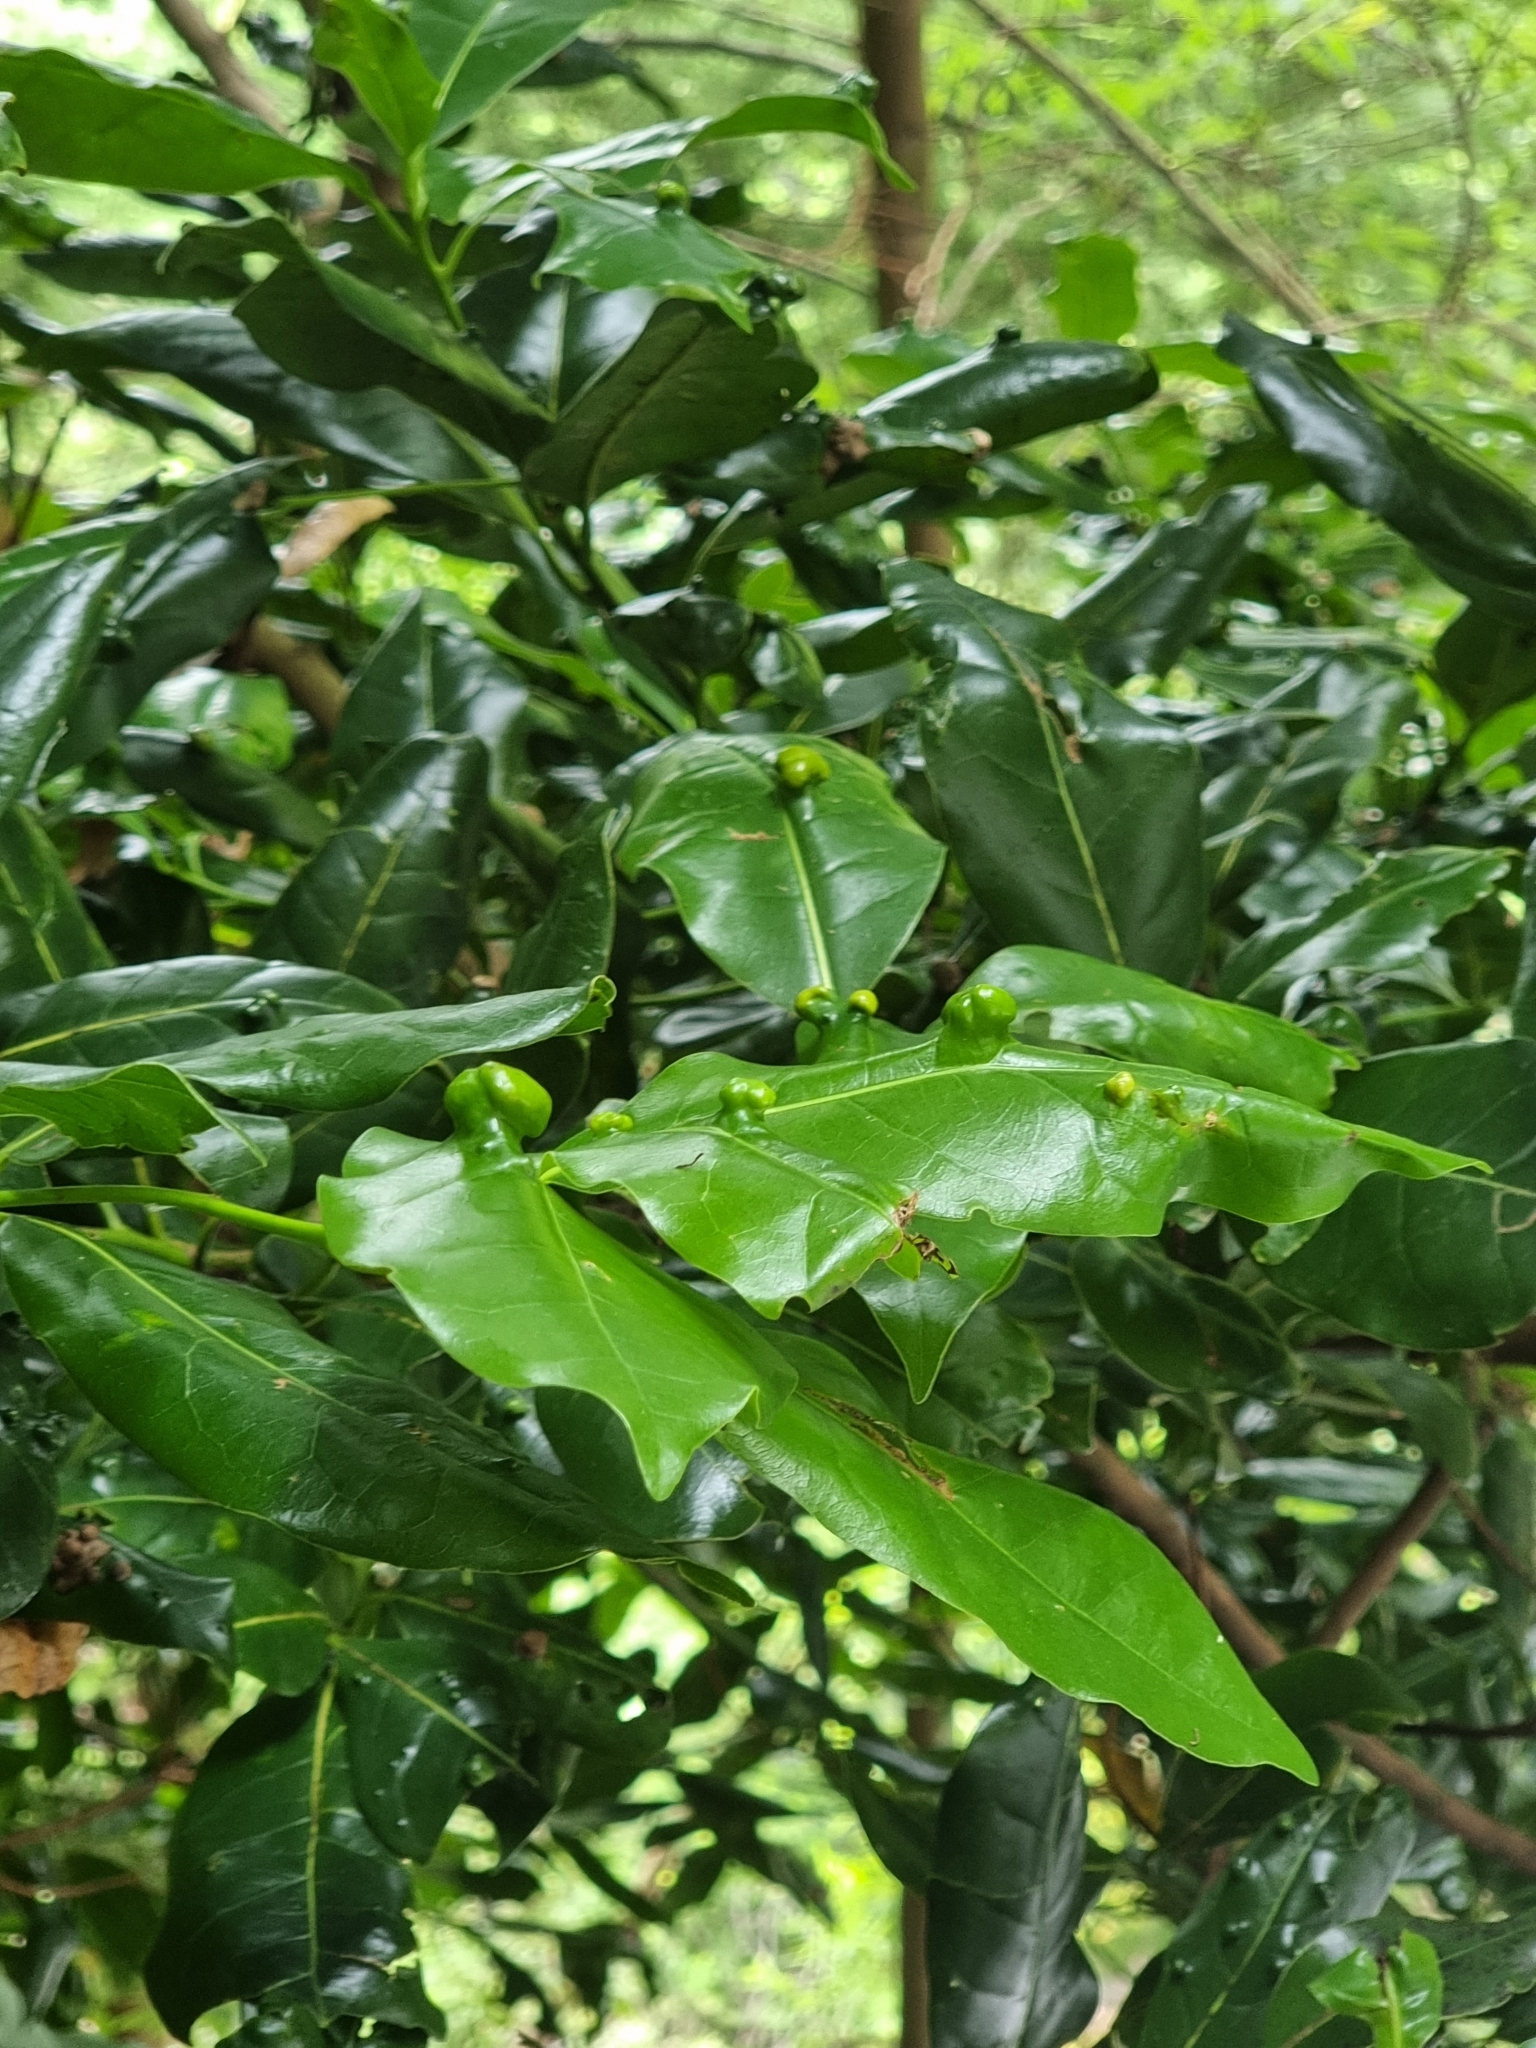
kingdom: Plantae
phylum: Tracheophyta
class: Magnoliopsida
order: Laurales
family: Lauraceae
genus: Apollonias
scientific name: Apollonias barbujana
